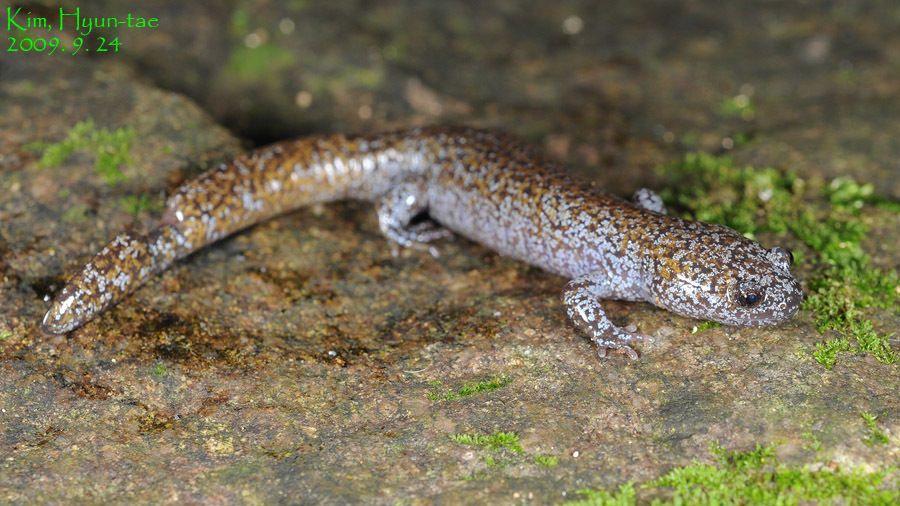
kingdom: Animalia
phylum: Chordata
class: Amphibia
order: Caudata
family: Hynobiidae
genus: Hynobius
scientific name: Hynobius leechii
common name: Gensan salamander
